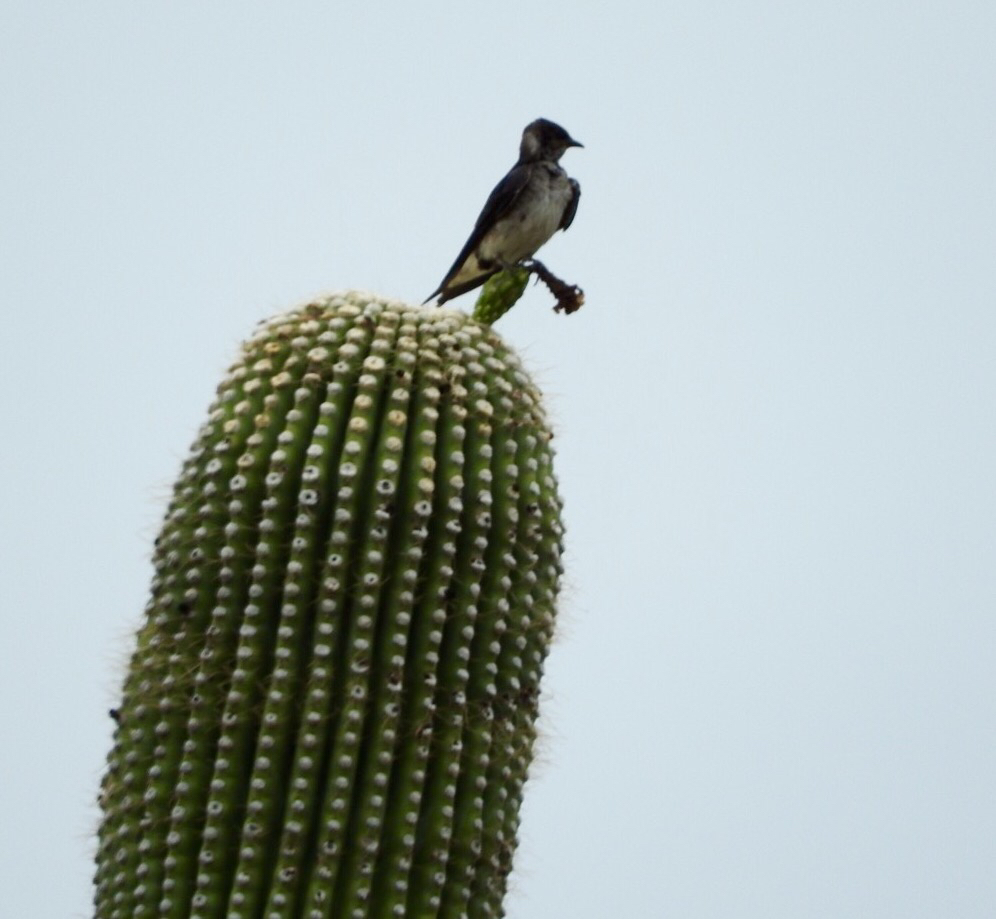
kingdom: Animalia
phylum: Chordata
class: Aves
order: Passeriformes
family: Hirundinidae
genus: Progne
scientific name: Progne subis
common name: Purple martin
